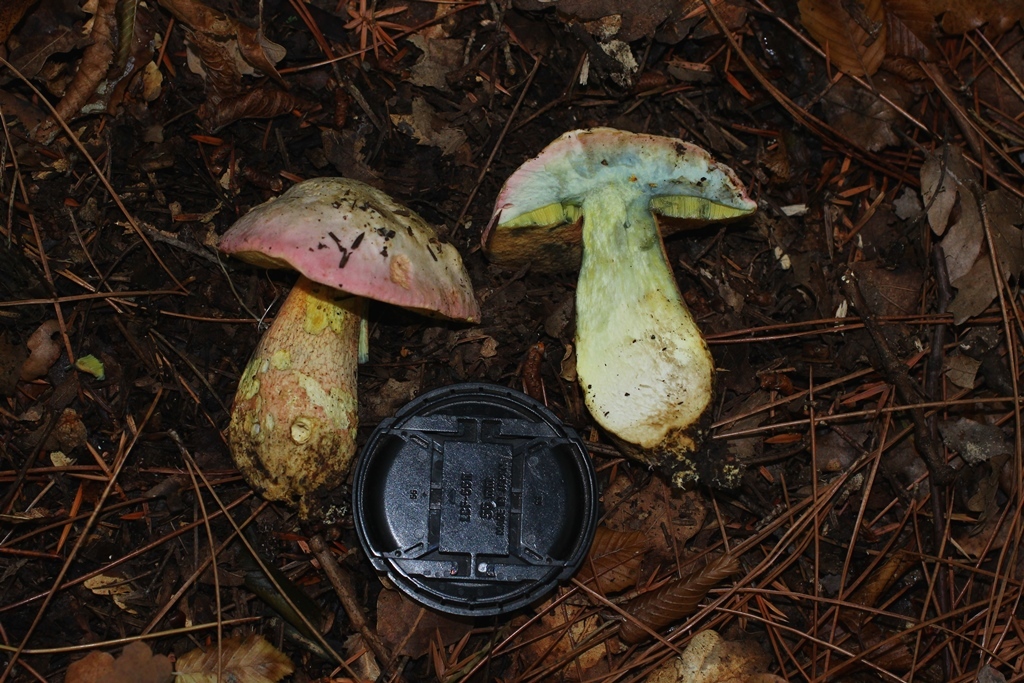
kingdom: Fungi
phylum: Basidiomycota
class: Agaricomycetes
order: Boletales
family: Boletaceae
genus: Rubroboletus
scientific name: Rubroboletus pulchrotinctus
